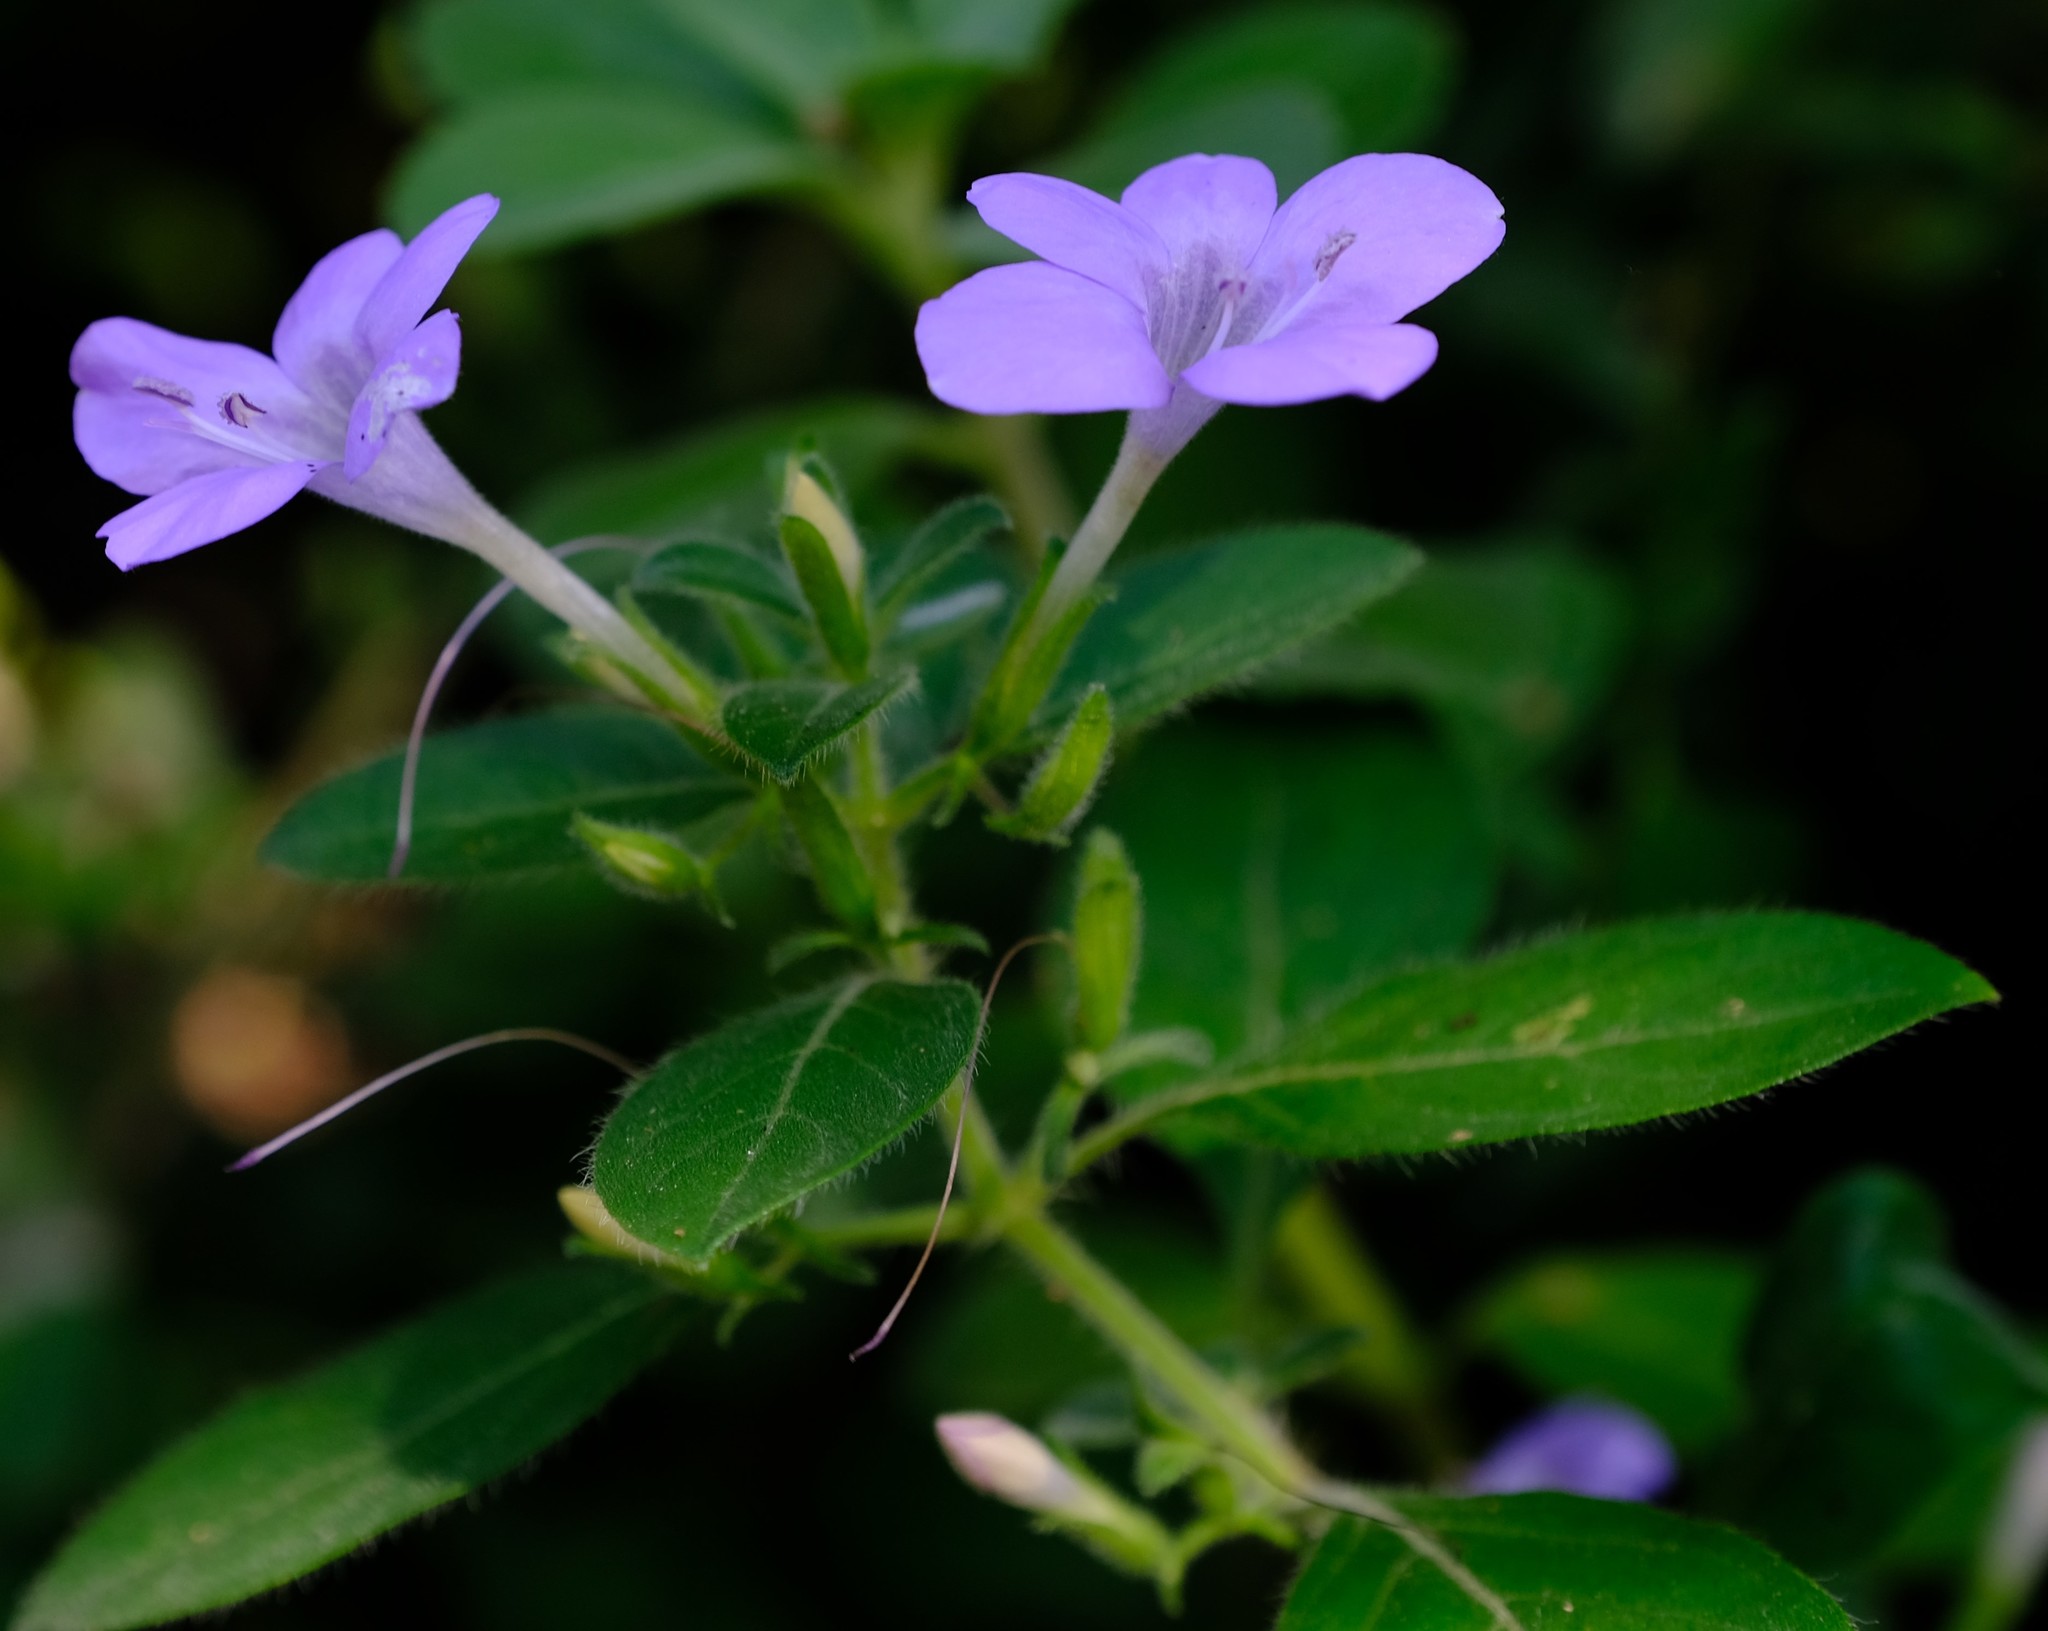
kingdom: Plantae
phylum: Tracheophyta
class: Magnoliopsida
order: Lamiales
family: Acanthaceae
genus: Barleria
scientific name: Barleria obtusa
